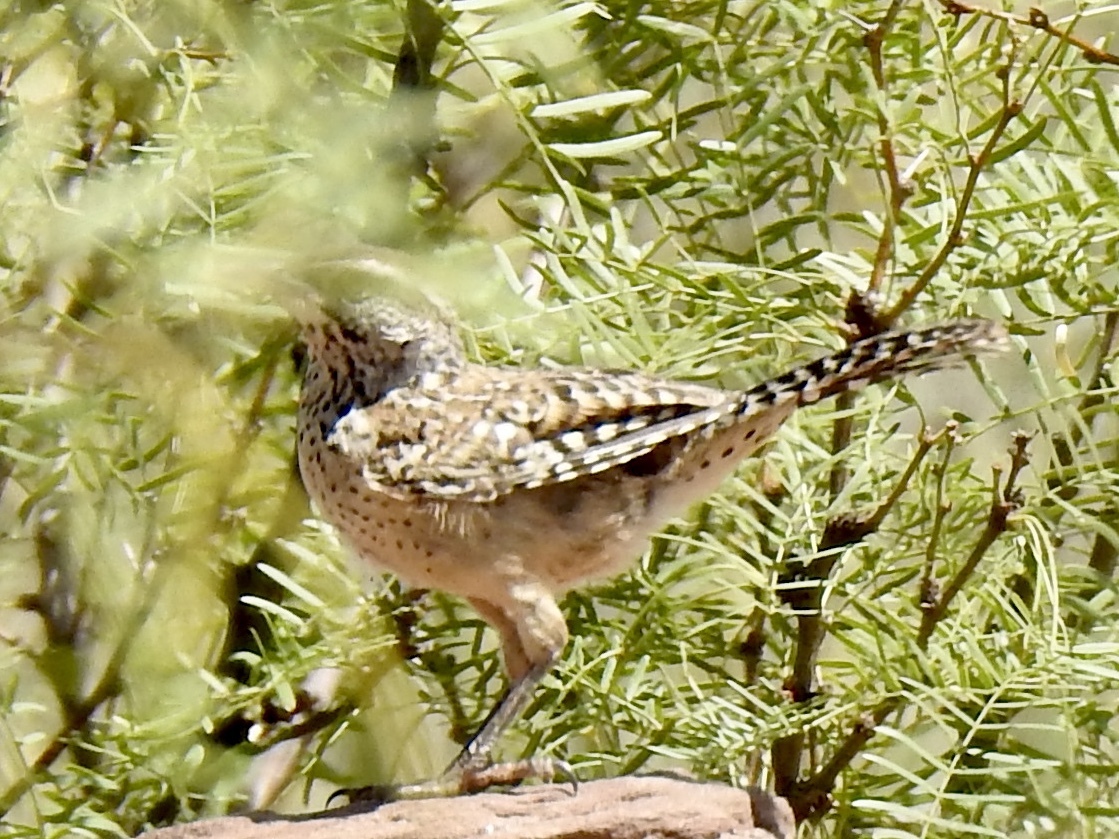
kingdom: Animalia
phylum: Chordata
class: Aves
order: Passeriformes
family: Troglodytidae
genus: Campylorhynchus
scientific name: Campylorhynchus brunneicapillus
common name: Cactus wren
